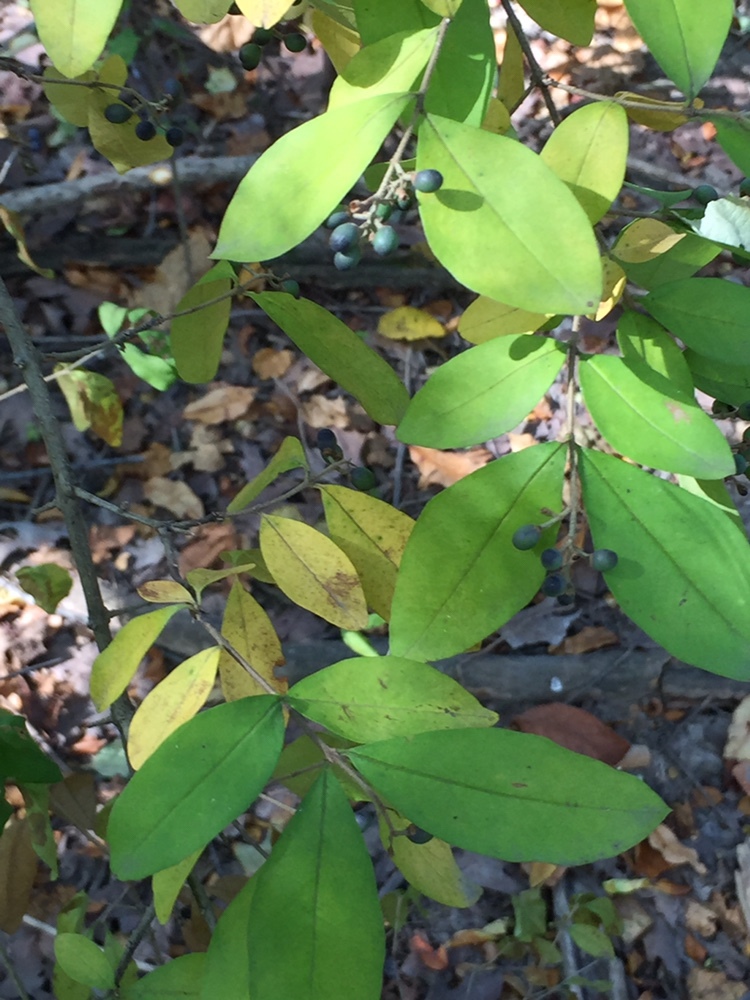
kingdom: Plantae
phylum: Tracheophyta
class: Magnoliopsida
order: Lamiales
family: Oleaceae
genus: Ligustrum
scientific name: Ligustrum obtusifolium
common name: Border privet
